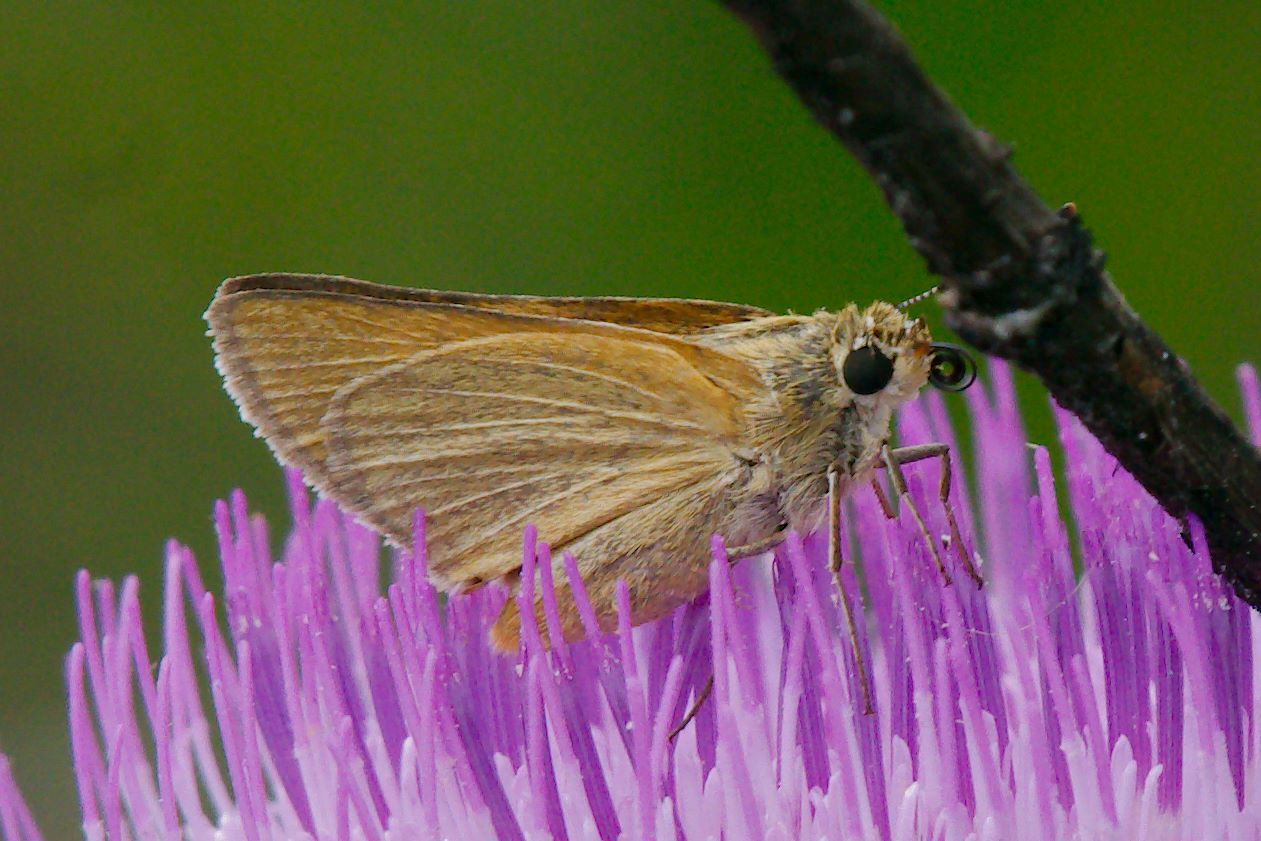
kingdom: Animalia
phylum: Arthropoda
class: Insecta
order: Lepidoptera
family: Hesperiidae
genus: Atrytone
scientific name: Atrytone arogos
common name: Arogos skipper
